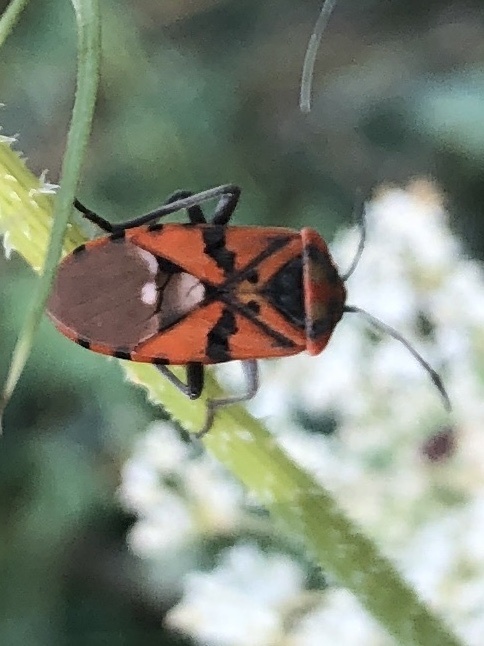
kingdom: Animalia
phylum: Arthropoda
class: Insecta
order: Hemiptera
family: Lygaeidae
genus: Spilostethus
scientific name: Spilostethus pandurus
